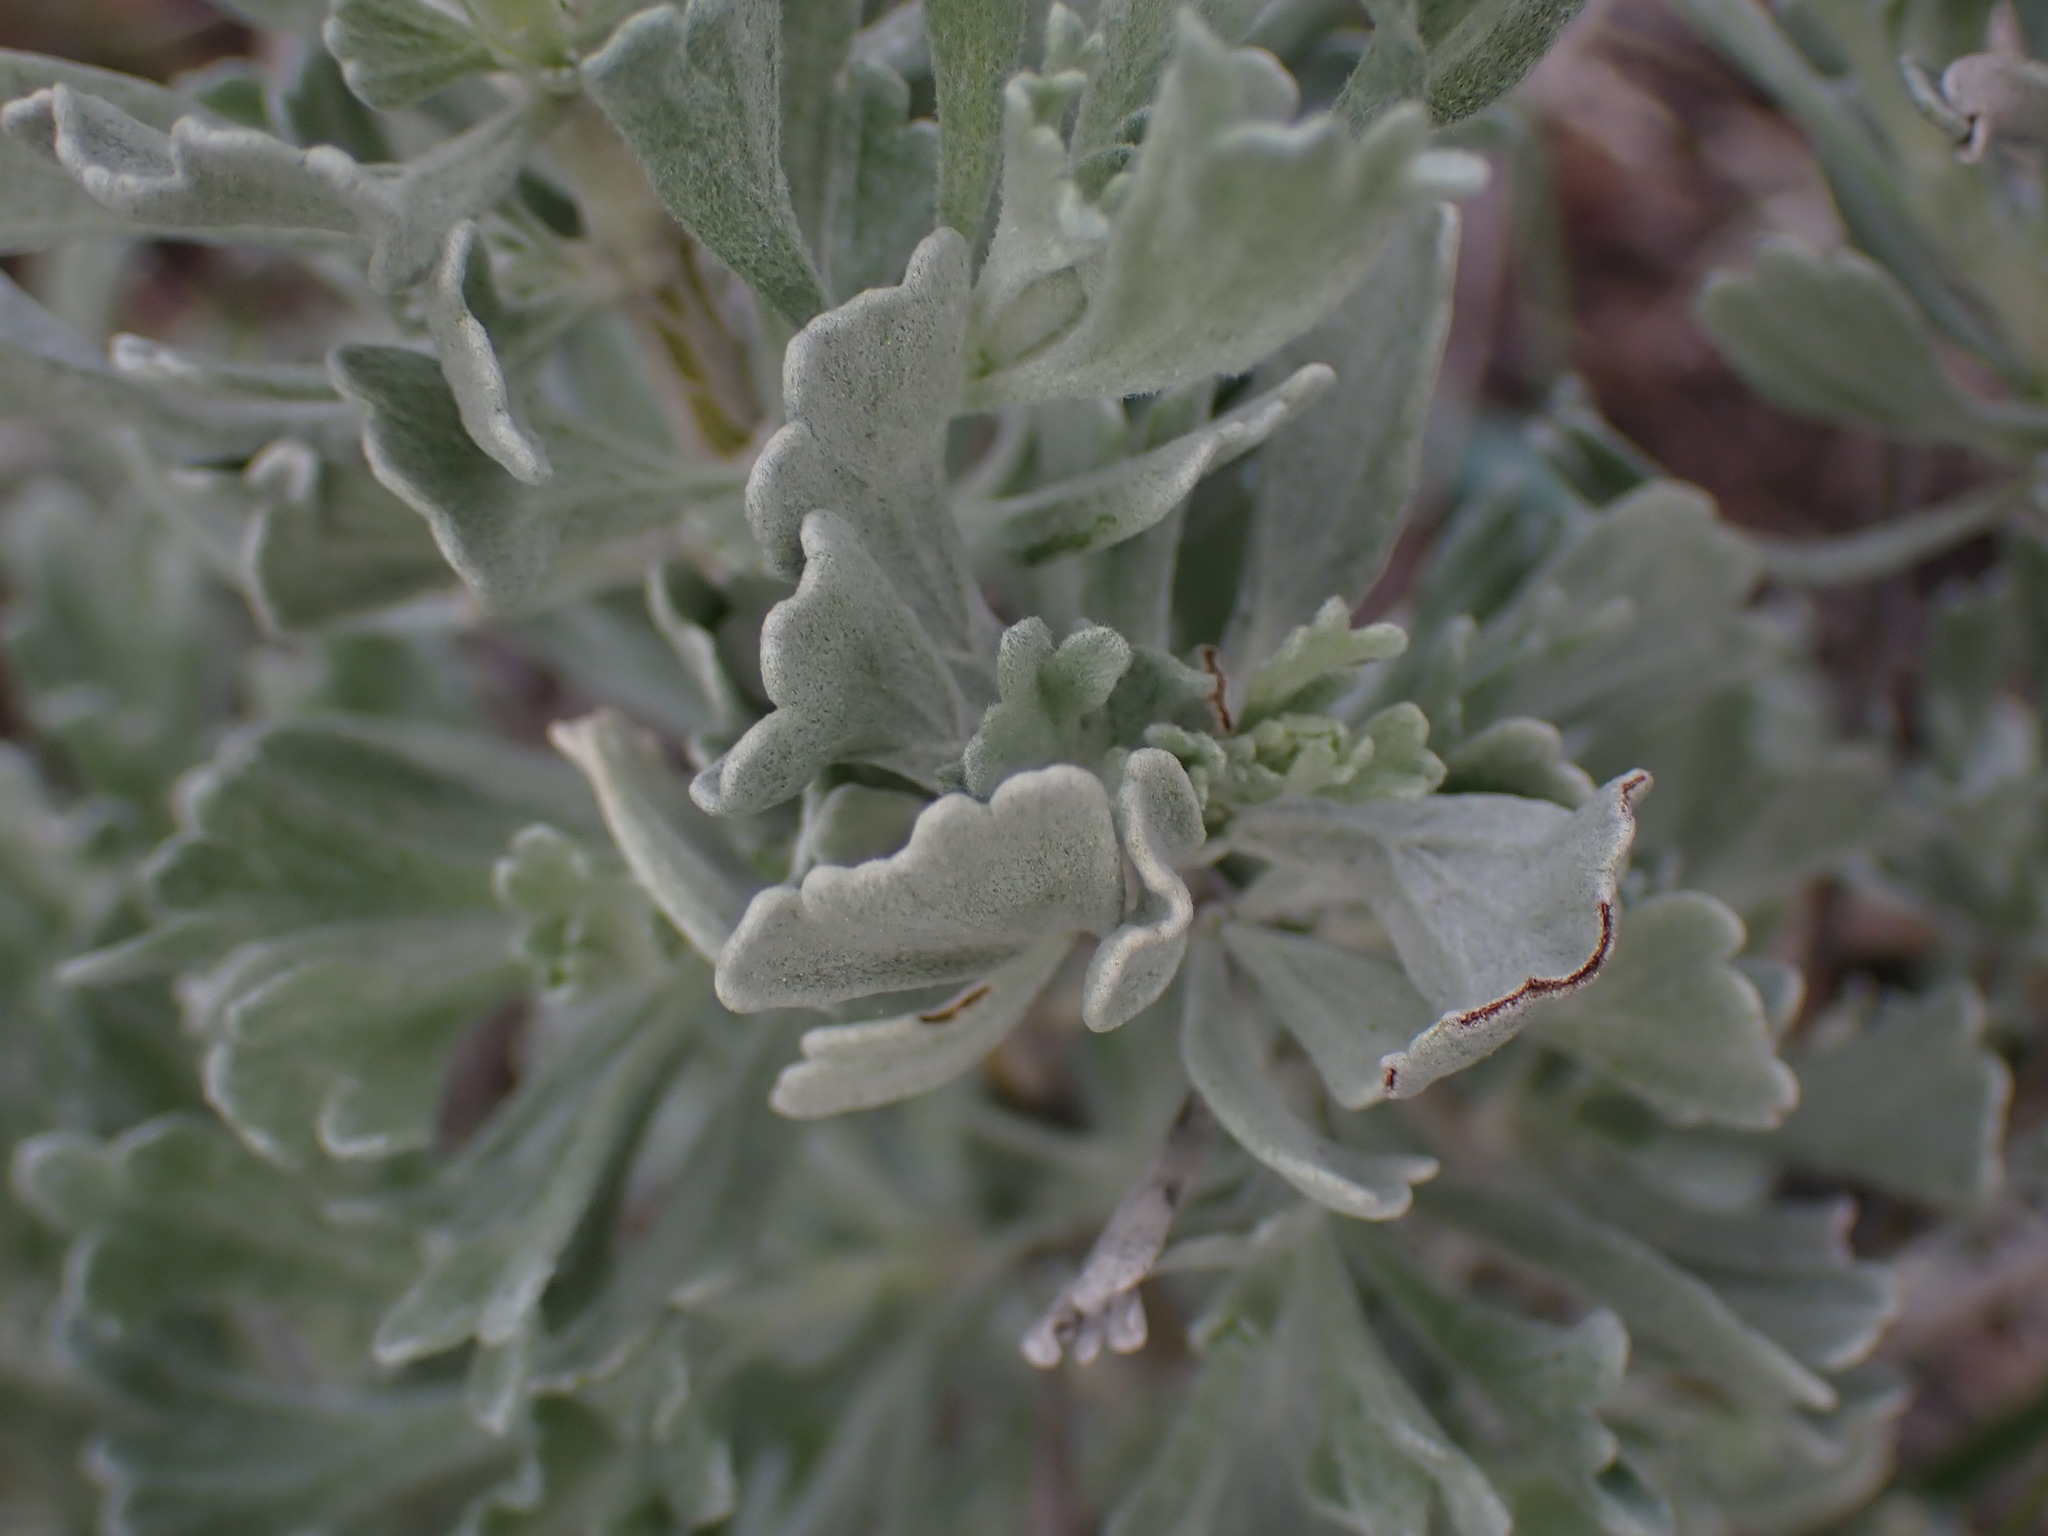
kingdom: Plantae
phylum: Tracheophyta
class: Magnoliopsida
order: Asterales
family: Asteraceae
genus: Artemisia
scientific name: Artemisia tridentata
